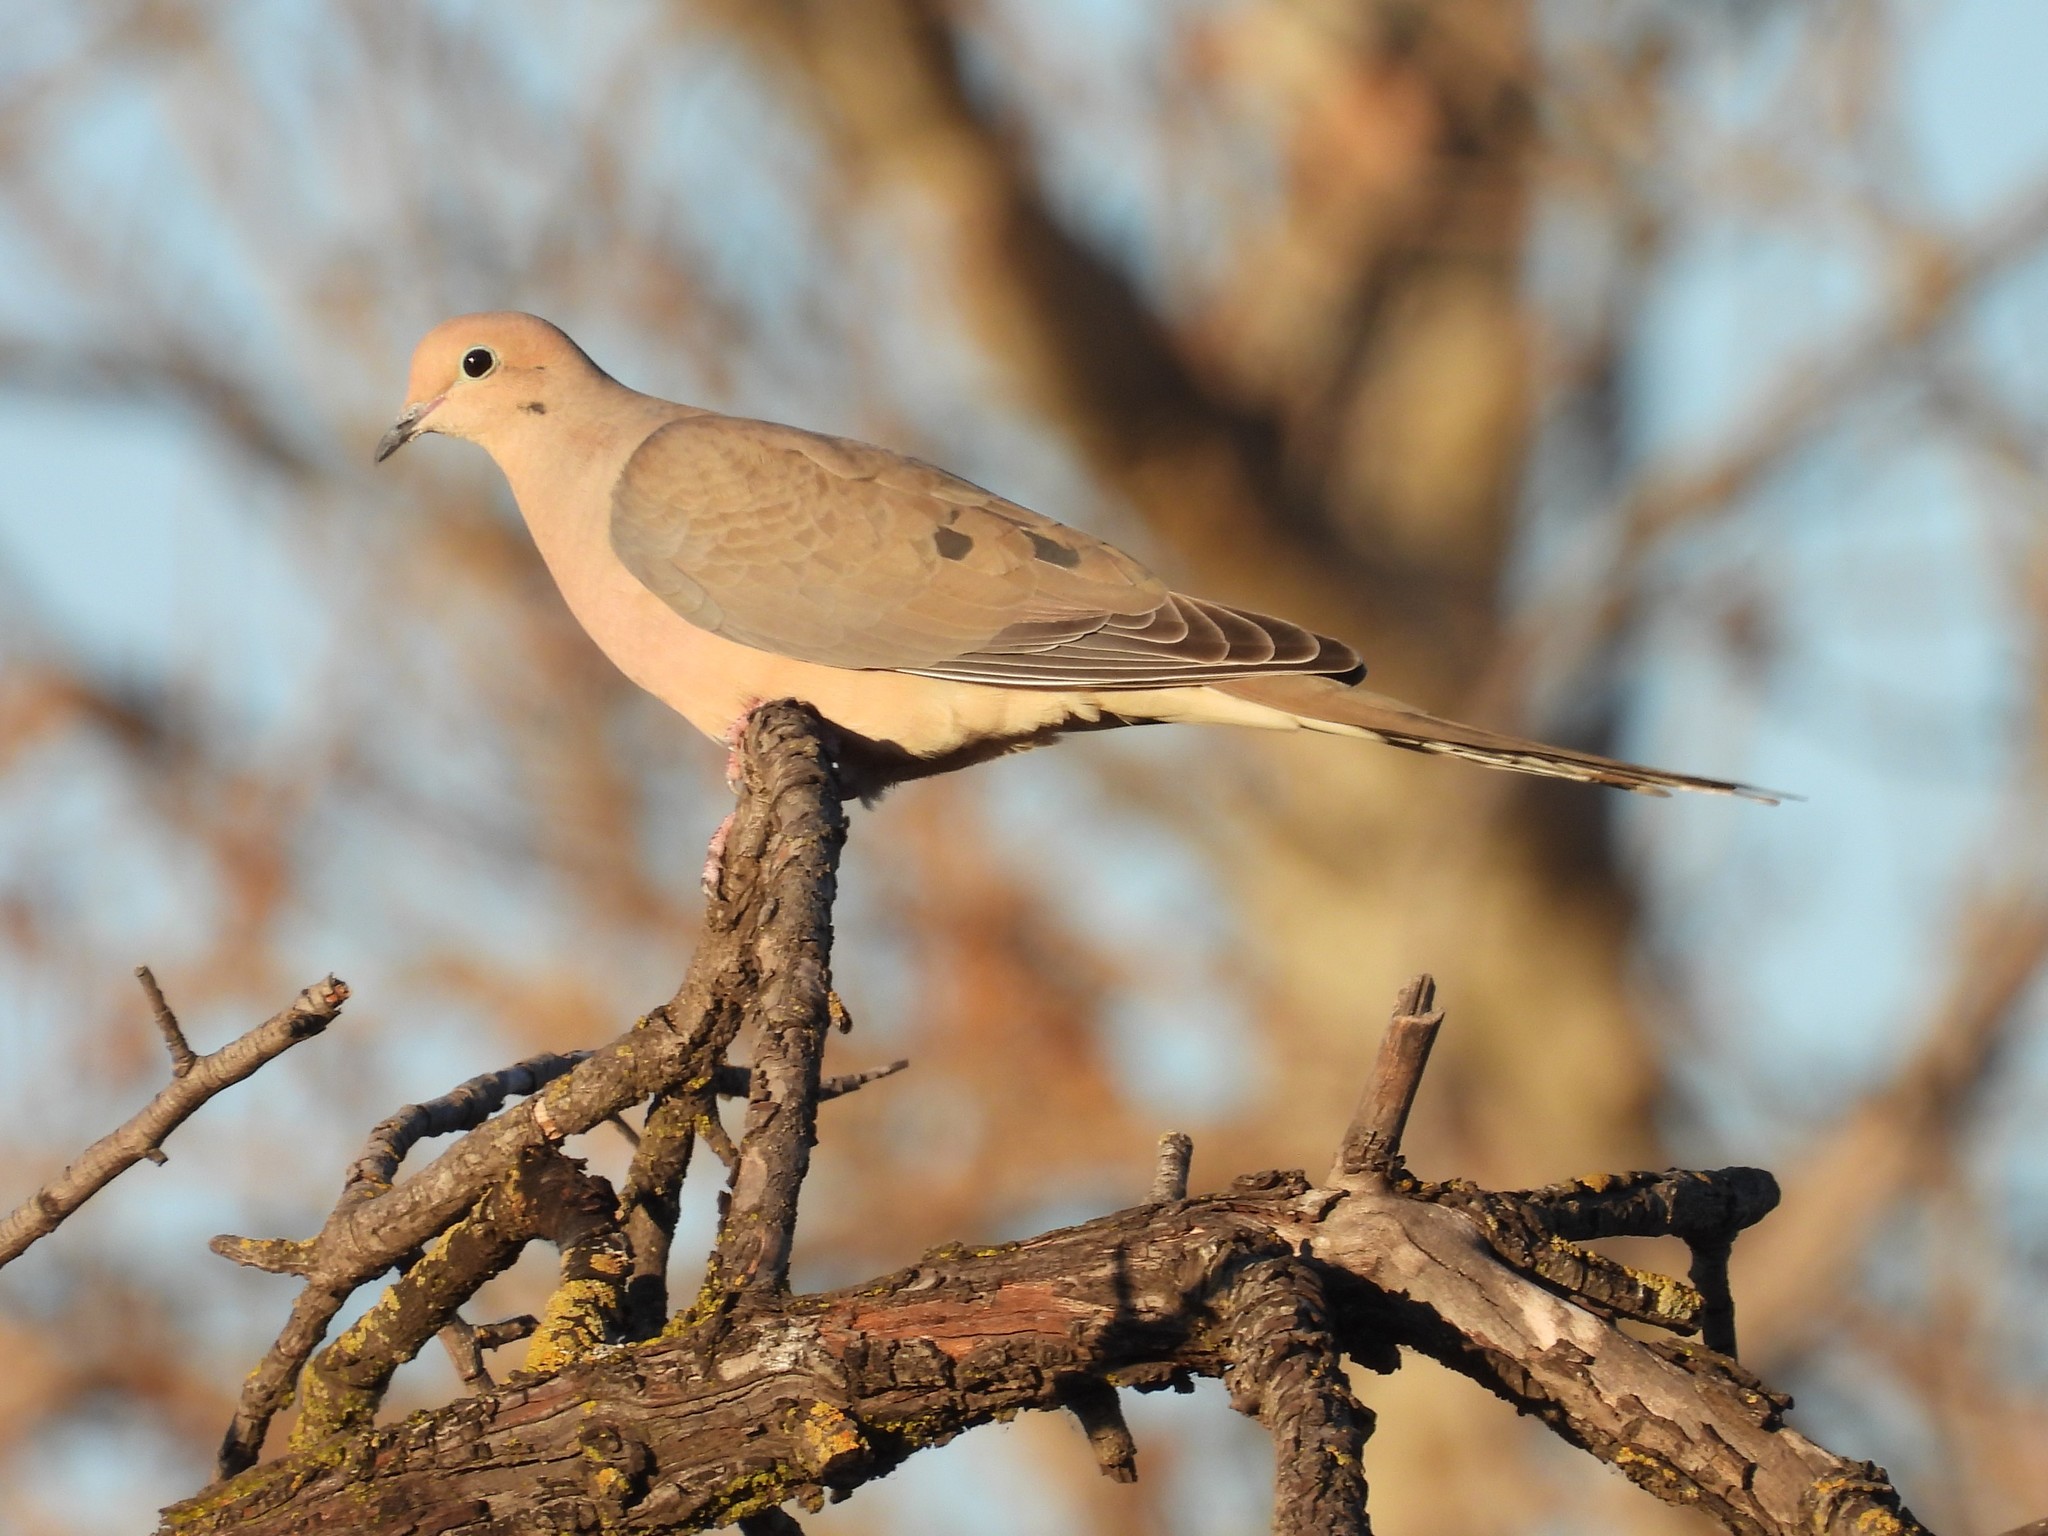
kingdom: Animalia
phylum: Chordata
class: Aves
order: Columbiformes
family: Columbidae
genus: Zenaida
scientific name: Zenaida macroura
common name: Mourning dove
